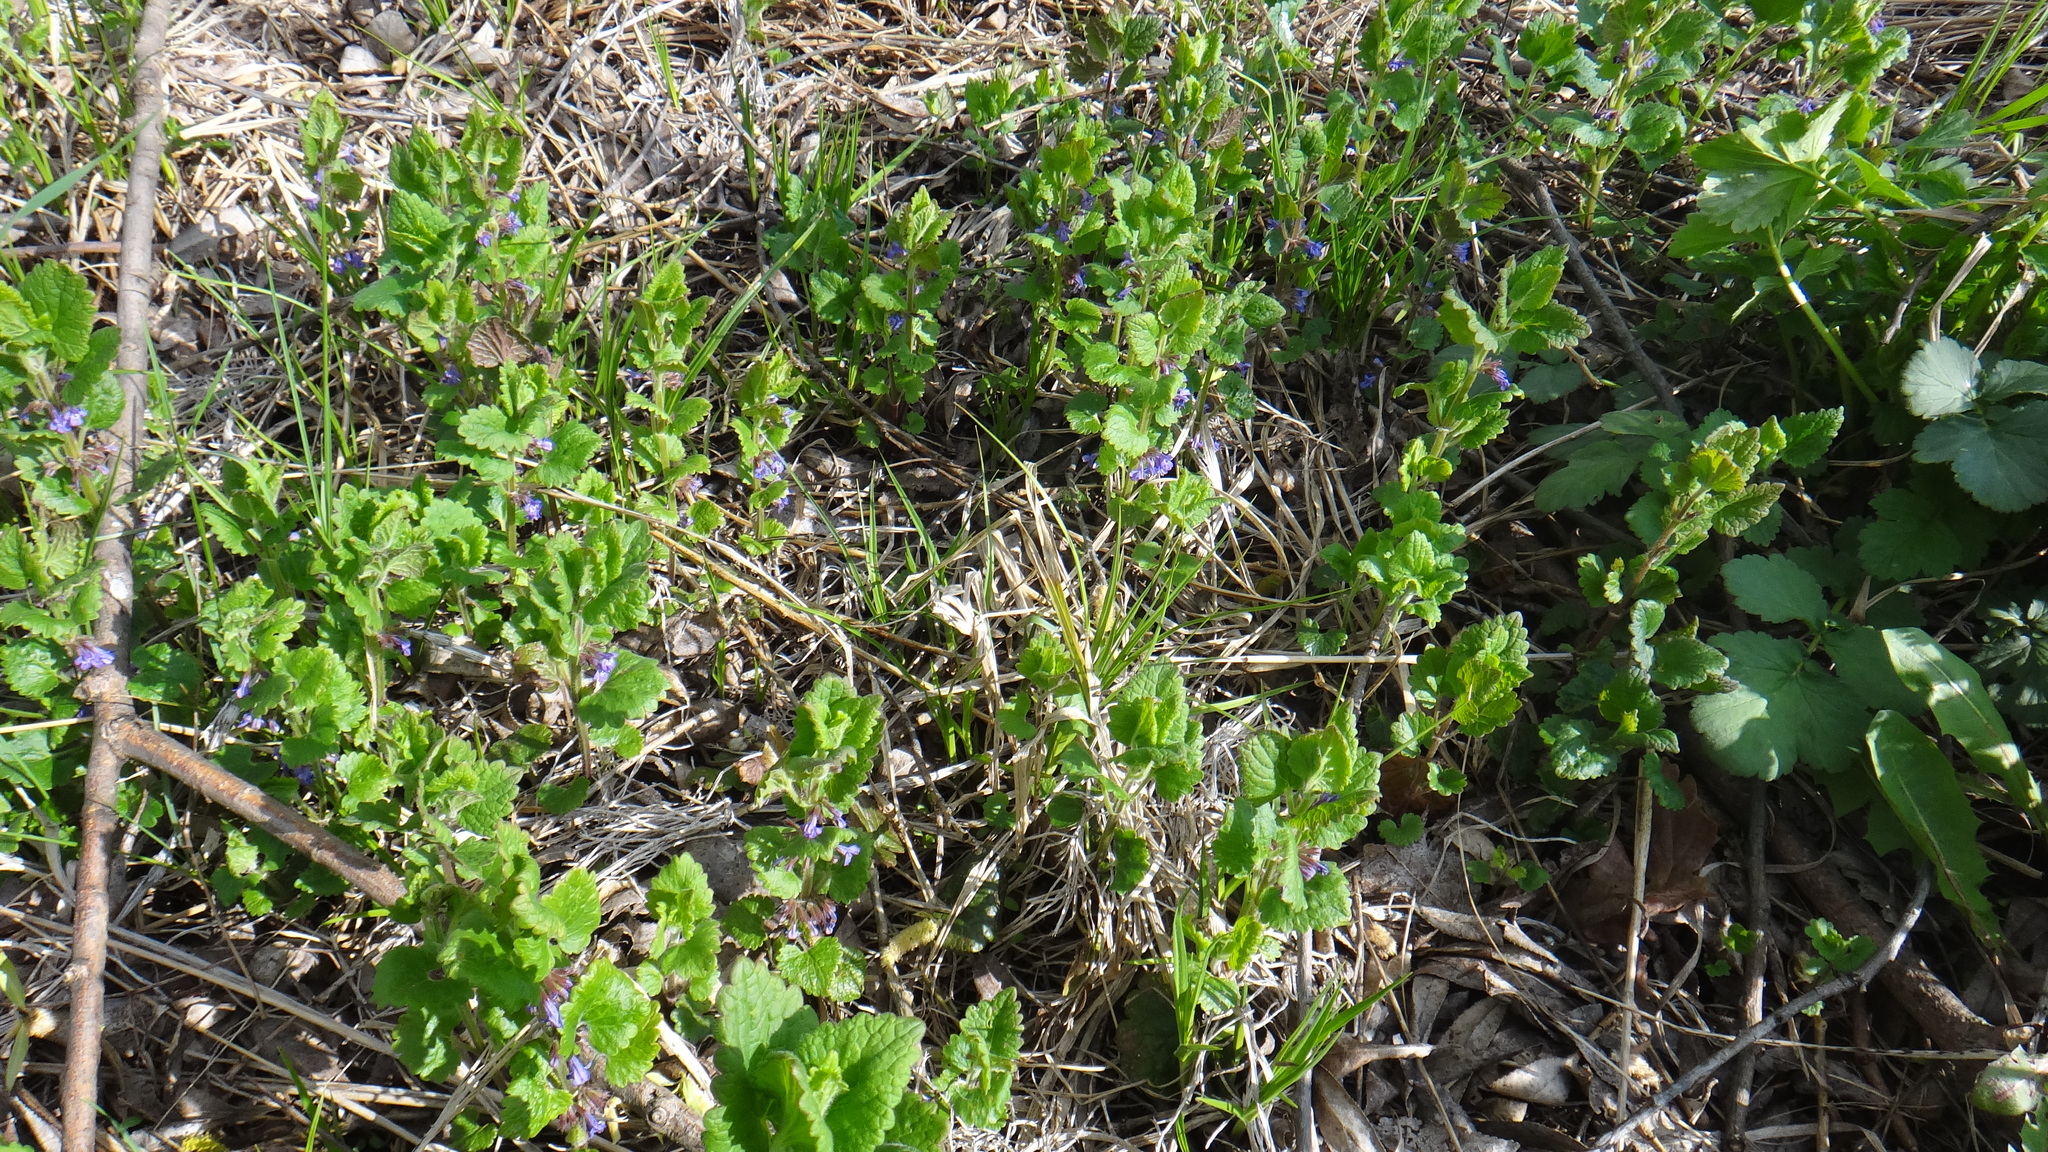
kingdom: Plantae
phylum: Tracheophyta
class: Magnoliopsida
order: Lamiales
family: Lamiaceae
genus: Glechoma
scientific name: Glechoma hederacea
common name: Ground ivy
